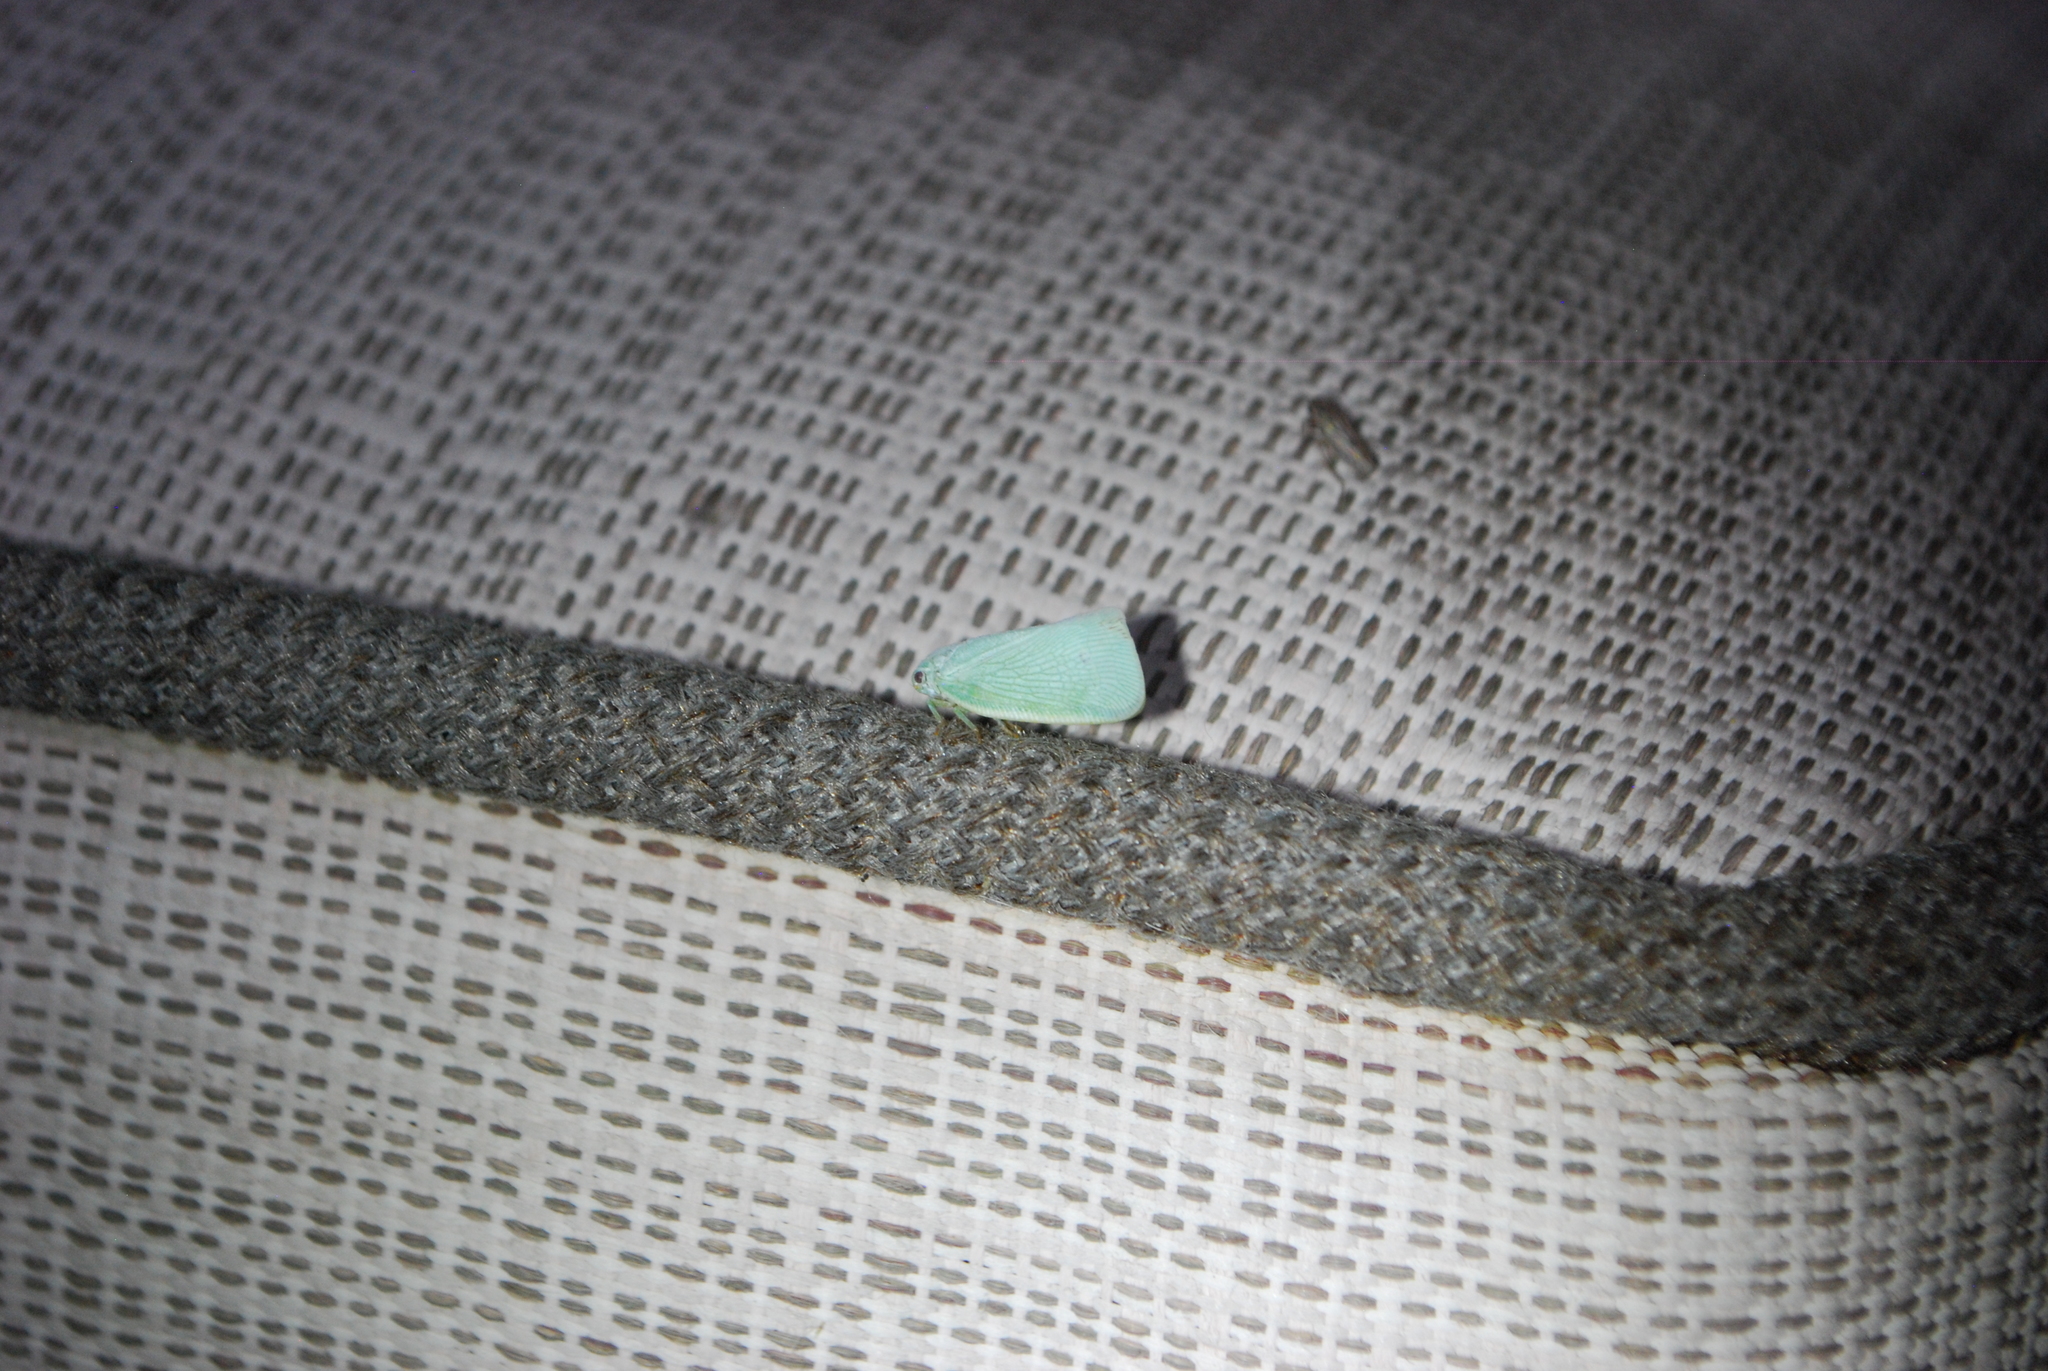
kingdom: Animalia
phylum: Arthropoda
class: Insecta
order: Hemiptera
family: Flatidae
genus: Flatormenis
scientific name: Flatormenis proxima
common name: Northern flatid planthopper
